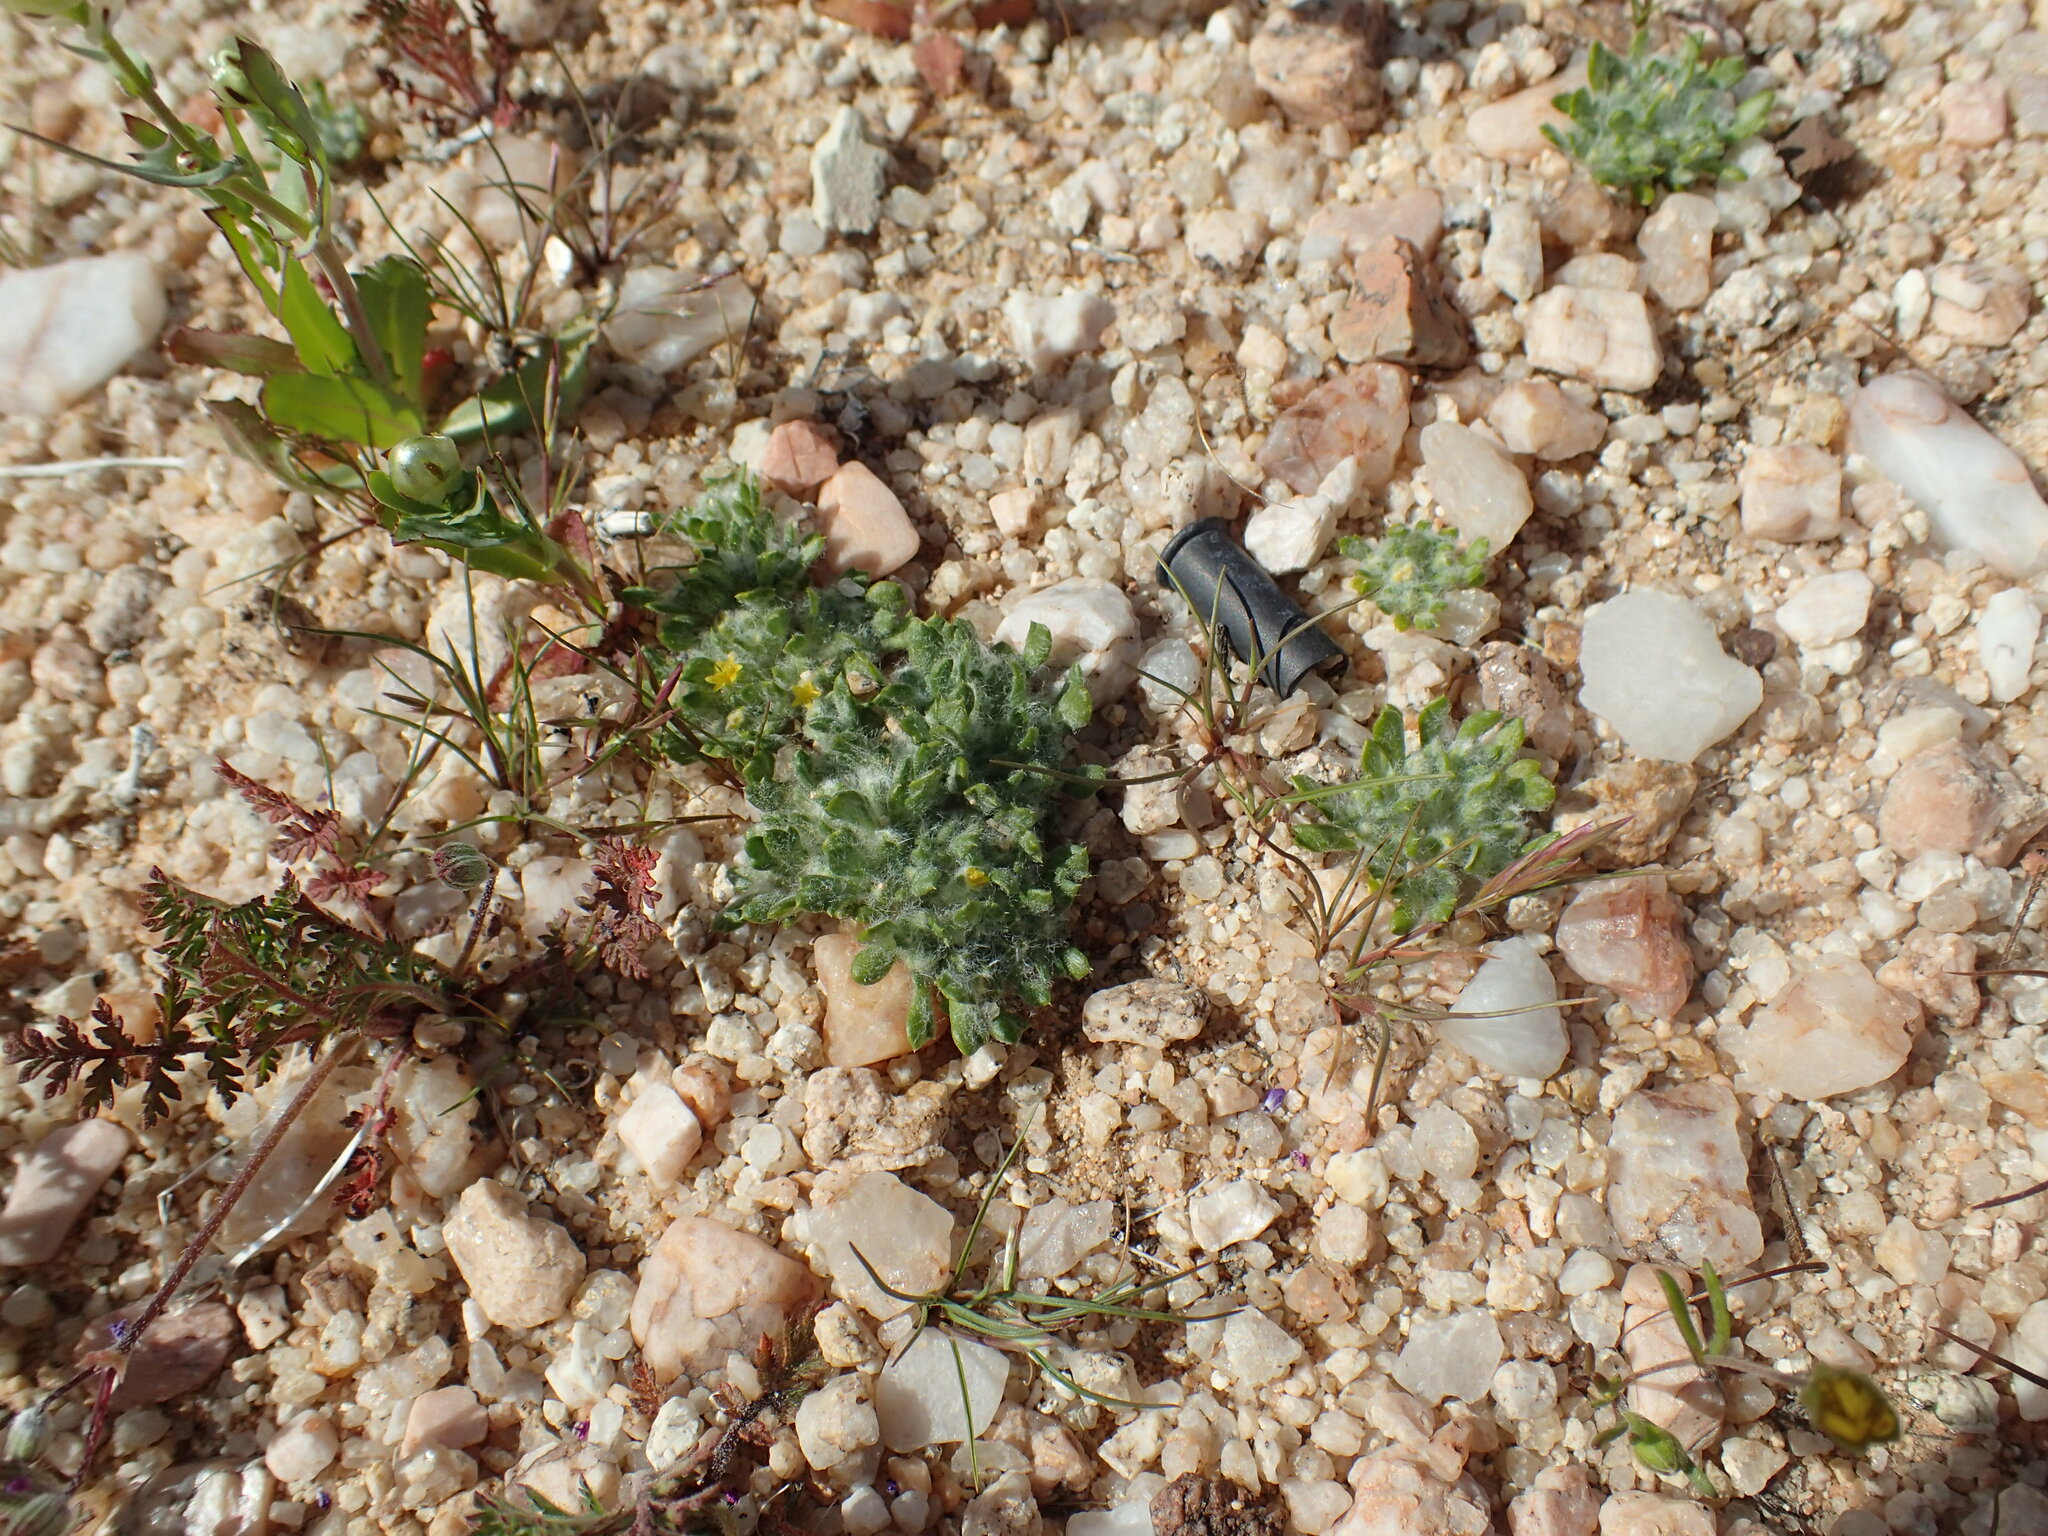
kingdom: Plantae
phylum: Tracheophyta
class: Magnoliopsida
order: Asterales
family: Asteraceae
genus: Eriophyllum
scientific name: Eriophyllum mohavense
